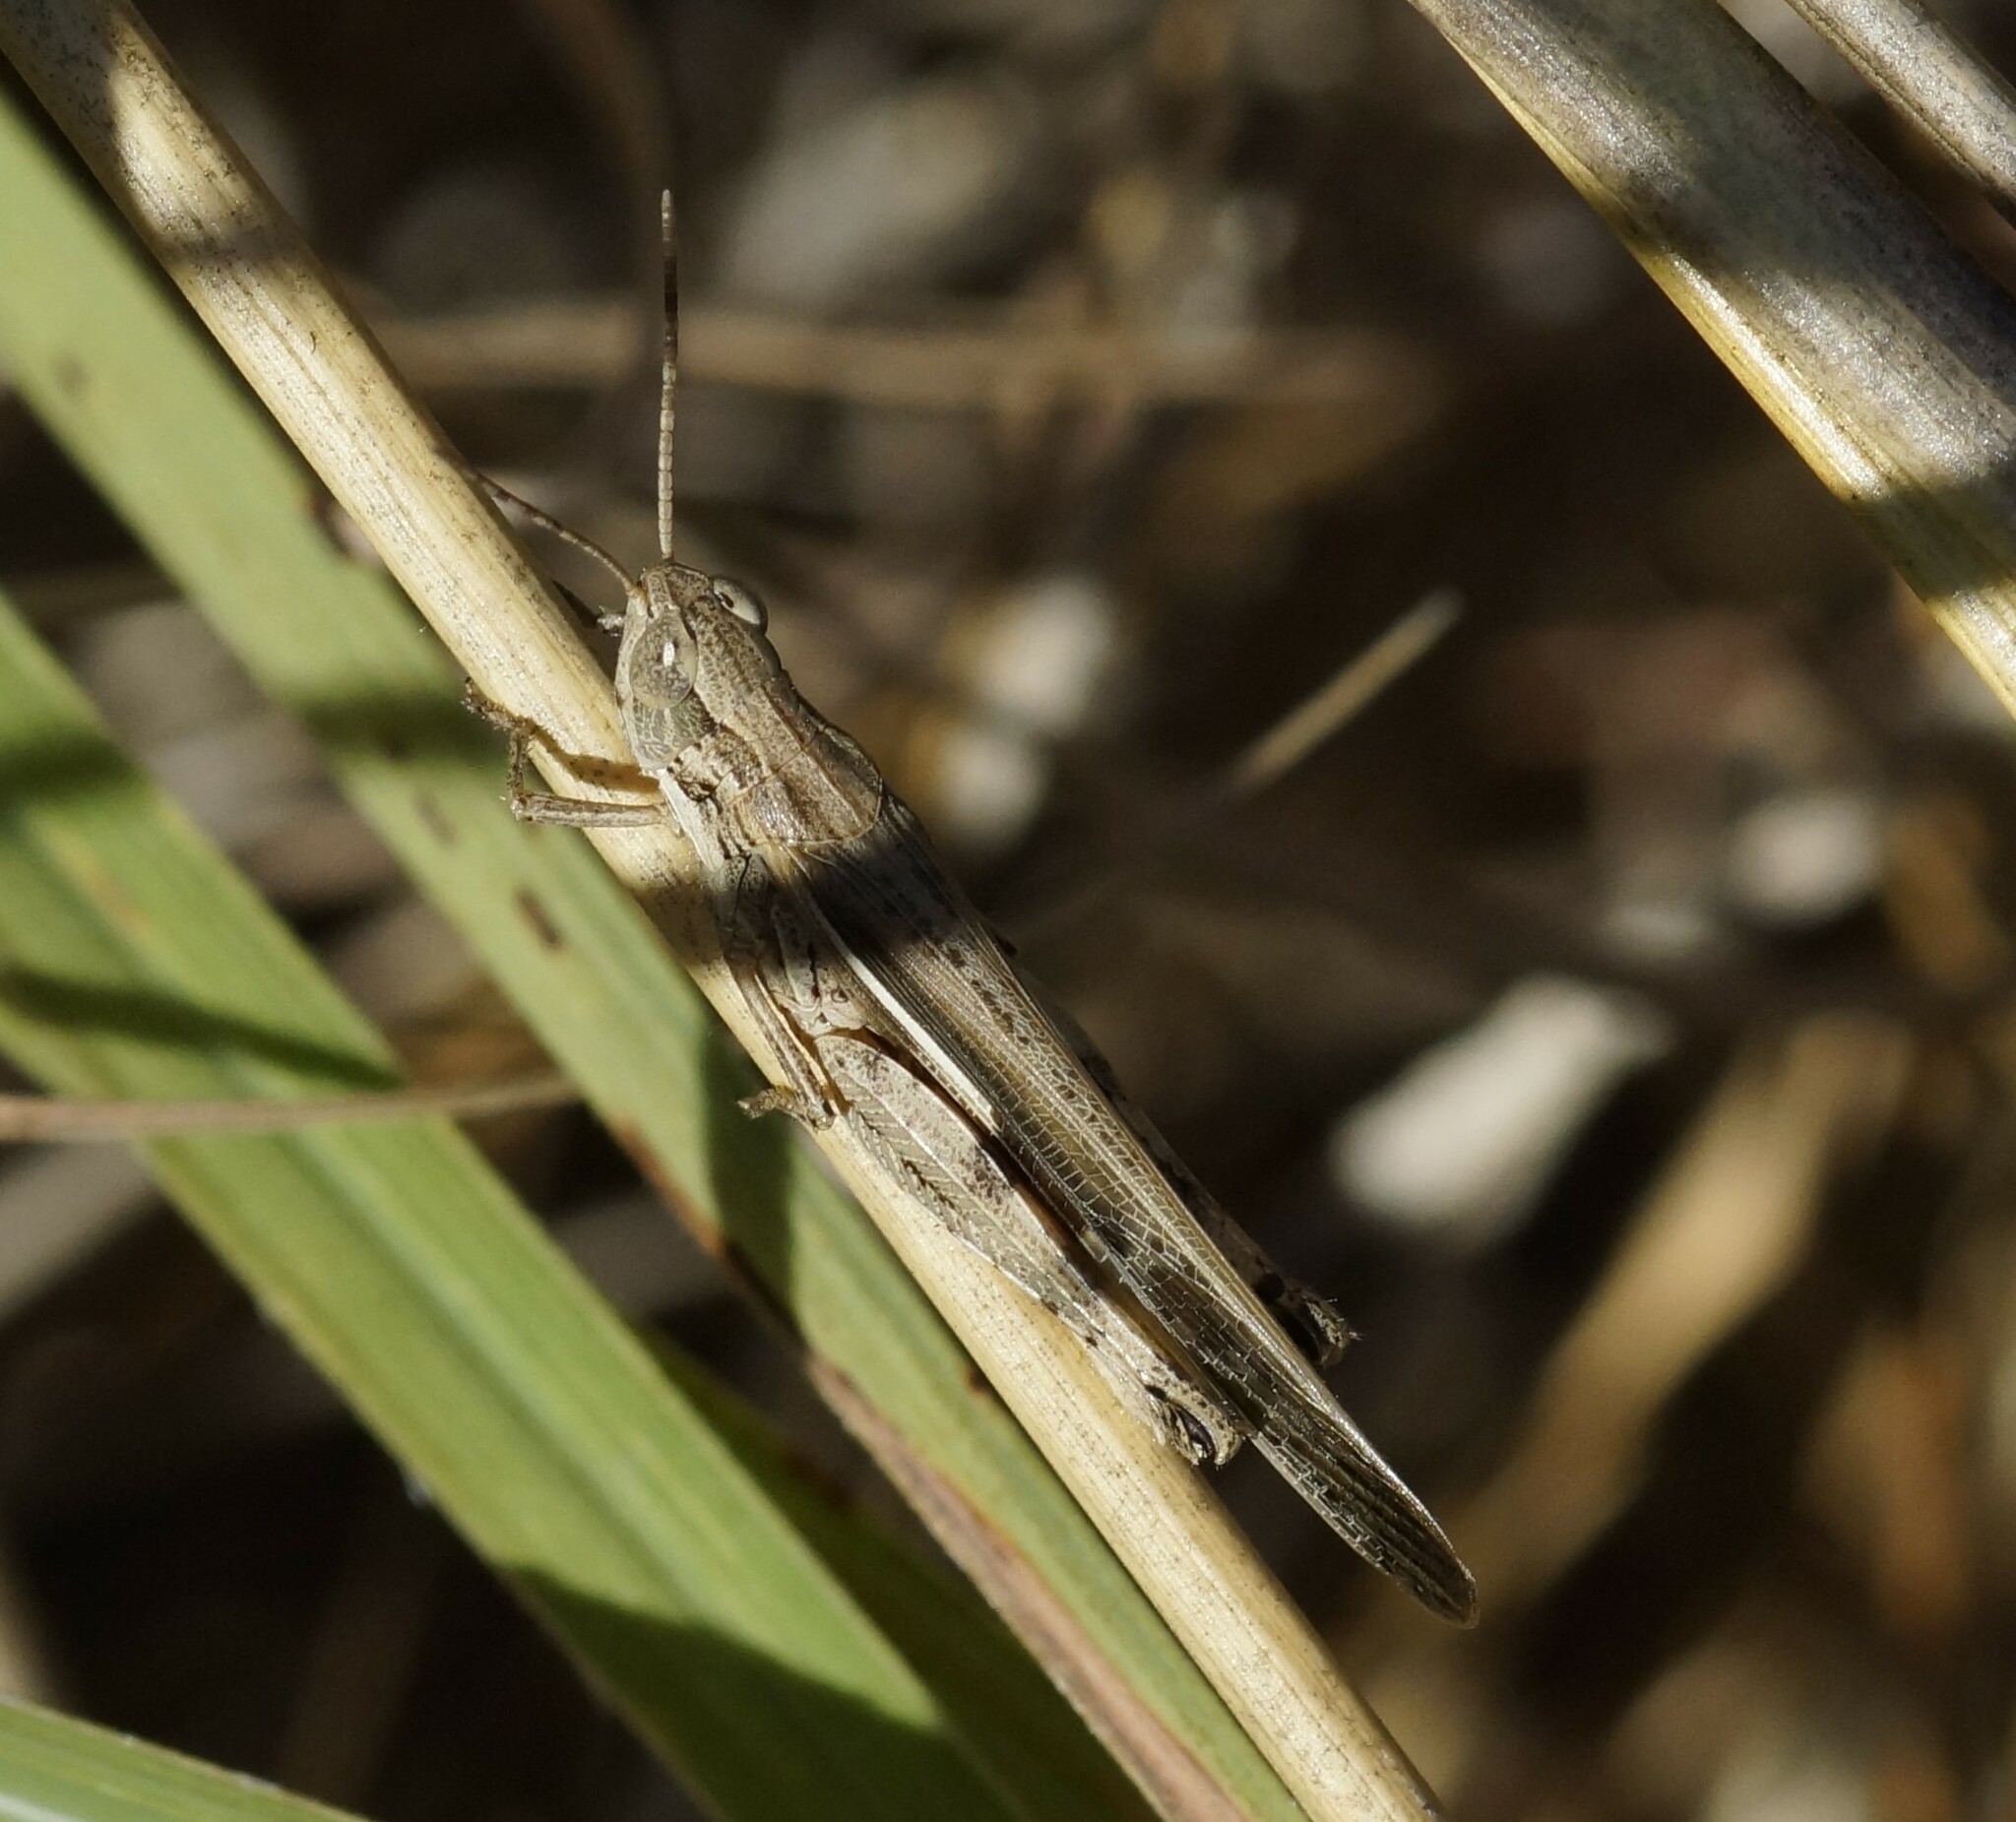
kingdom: Animalia
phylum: Arthropoda
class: Insecta
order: Orthoptera
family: Acrididae
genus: Aiolopus
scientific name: Aiolopus thalassinus
